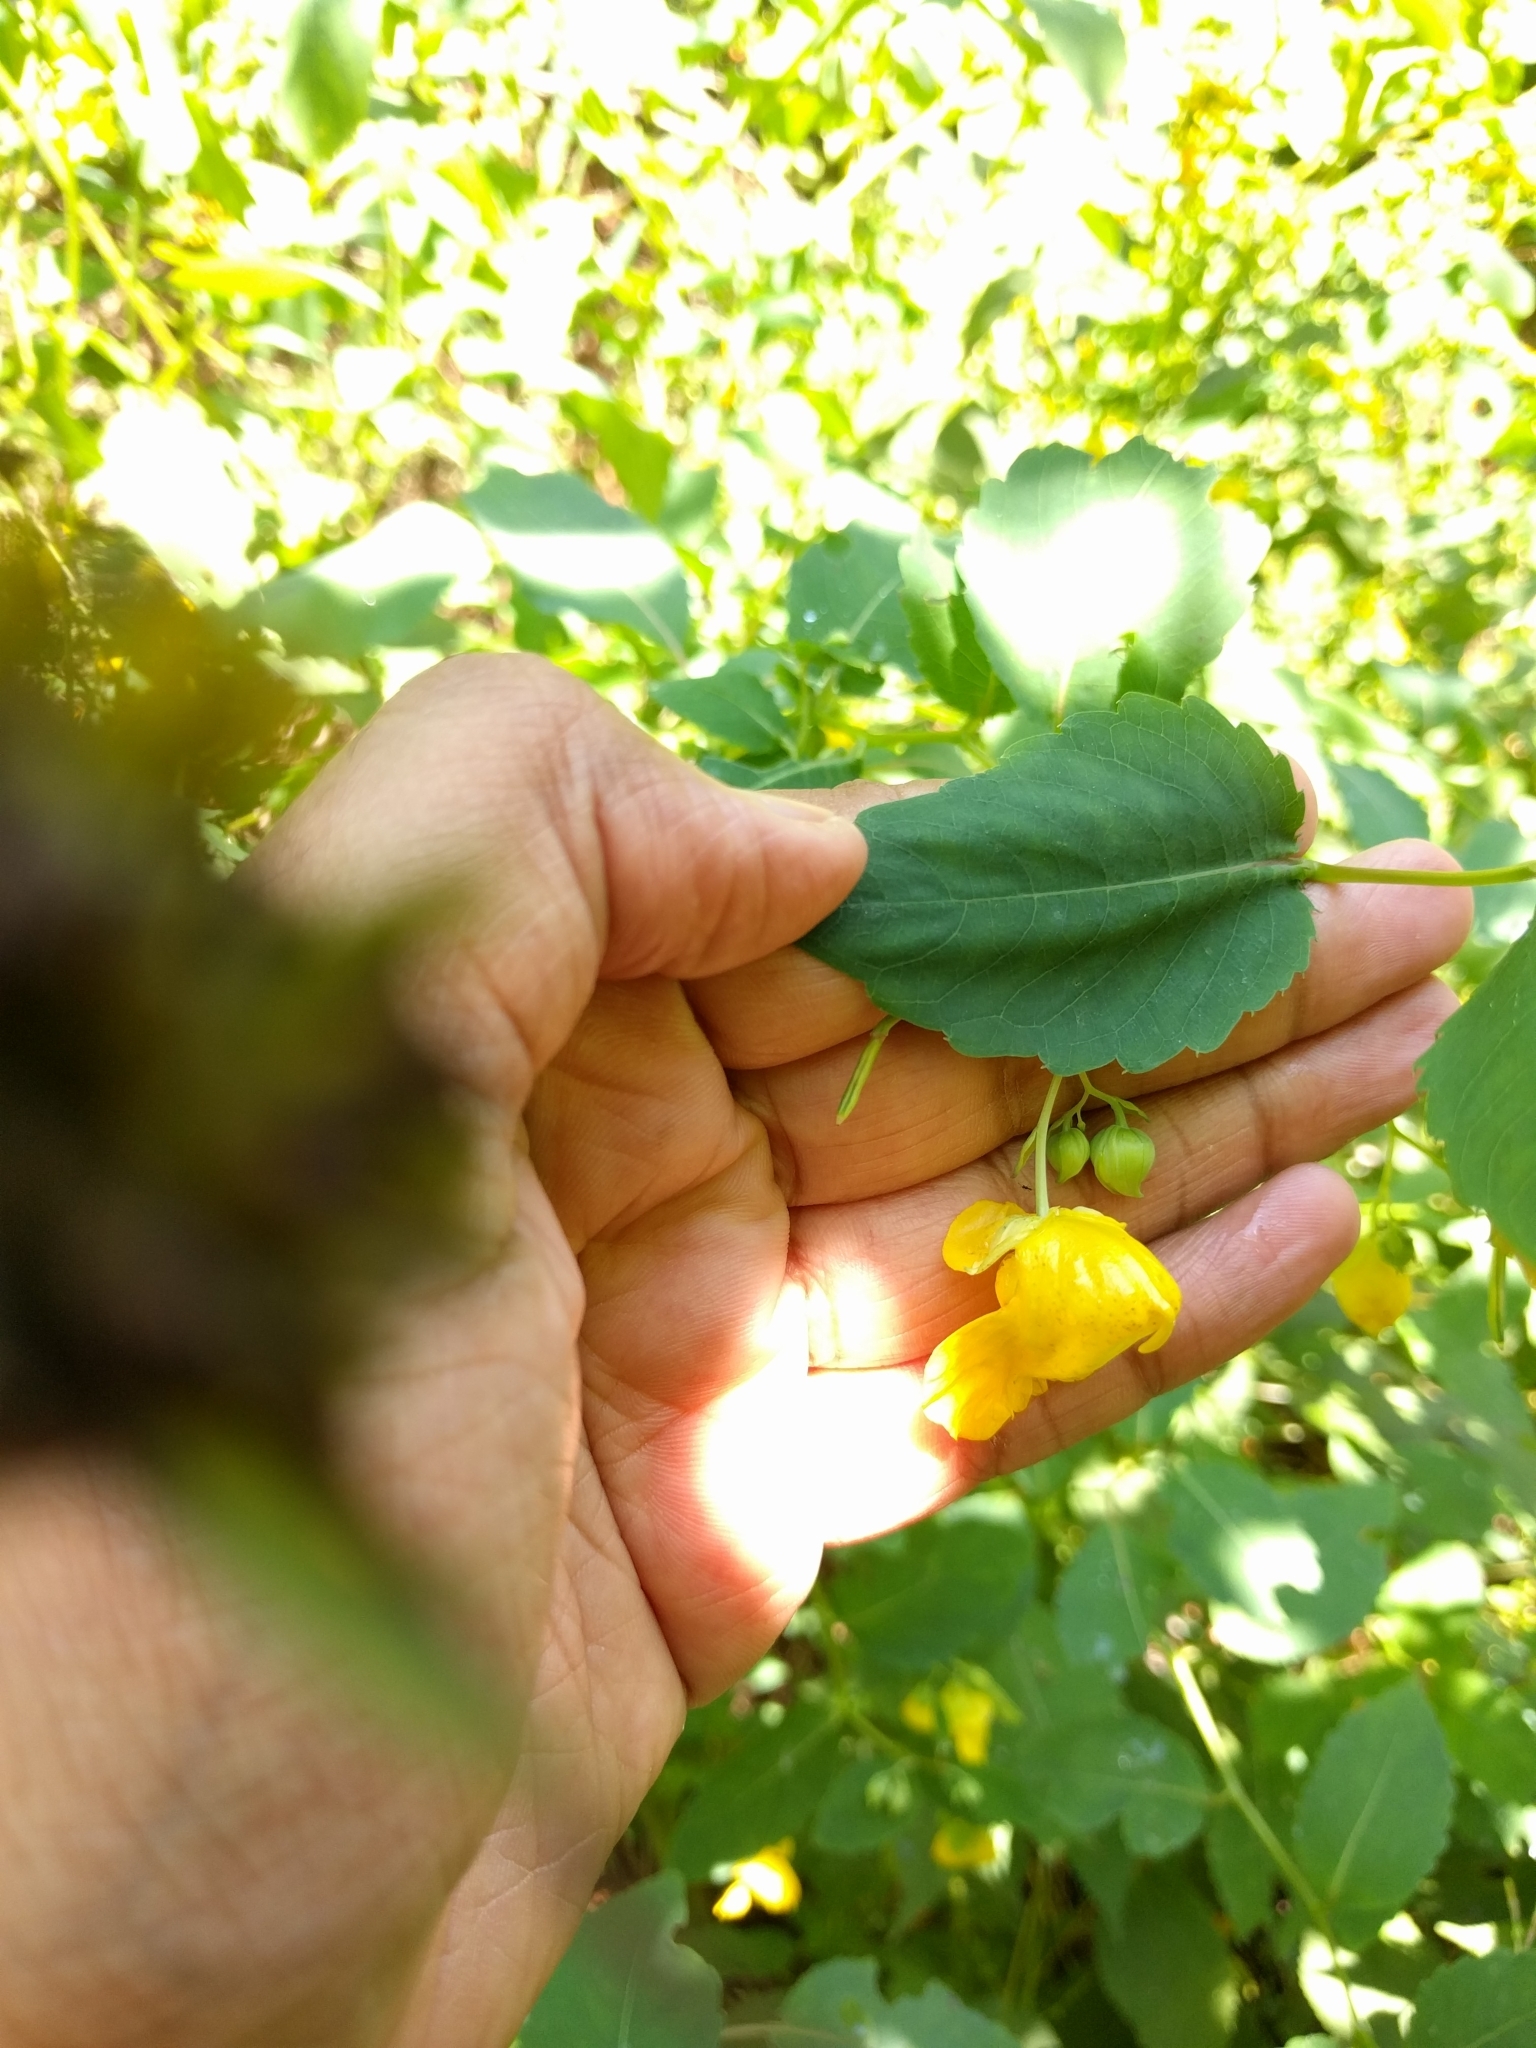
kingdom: Plantae
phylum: Tracheophyta
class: Magnoliopsida
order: Ericales
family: Balsaminaceae
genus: Impatiens
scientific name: Impatiens pallida
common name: Pale snapweed
